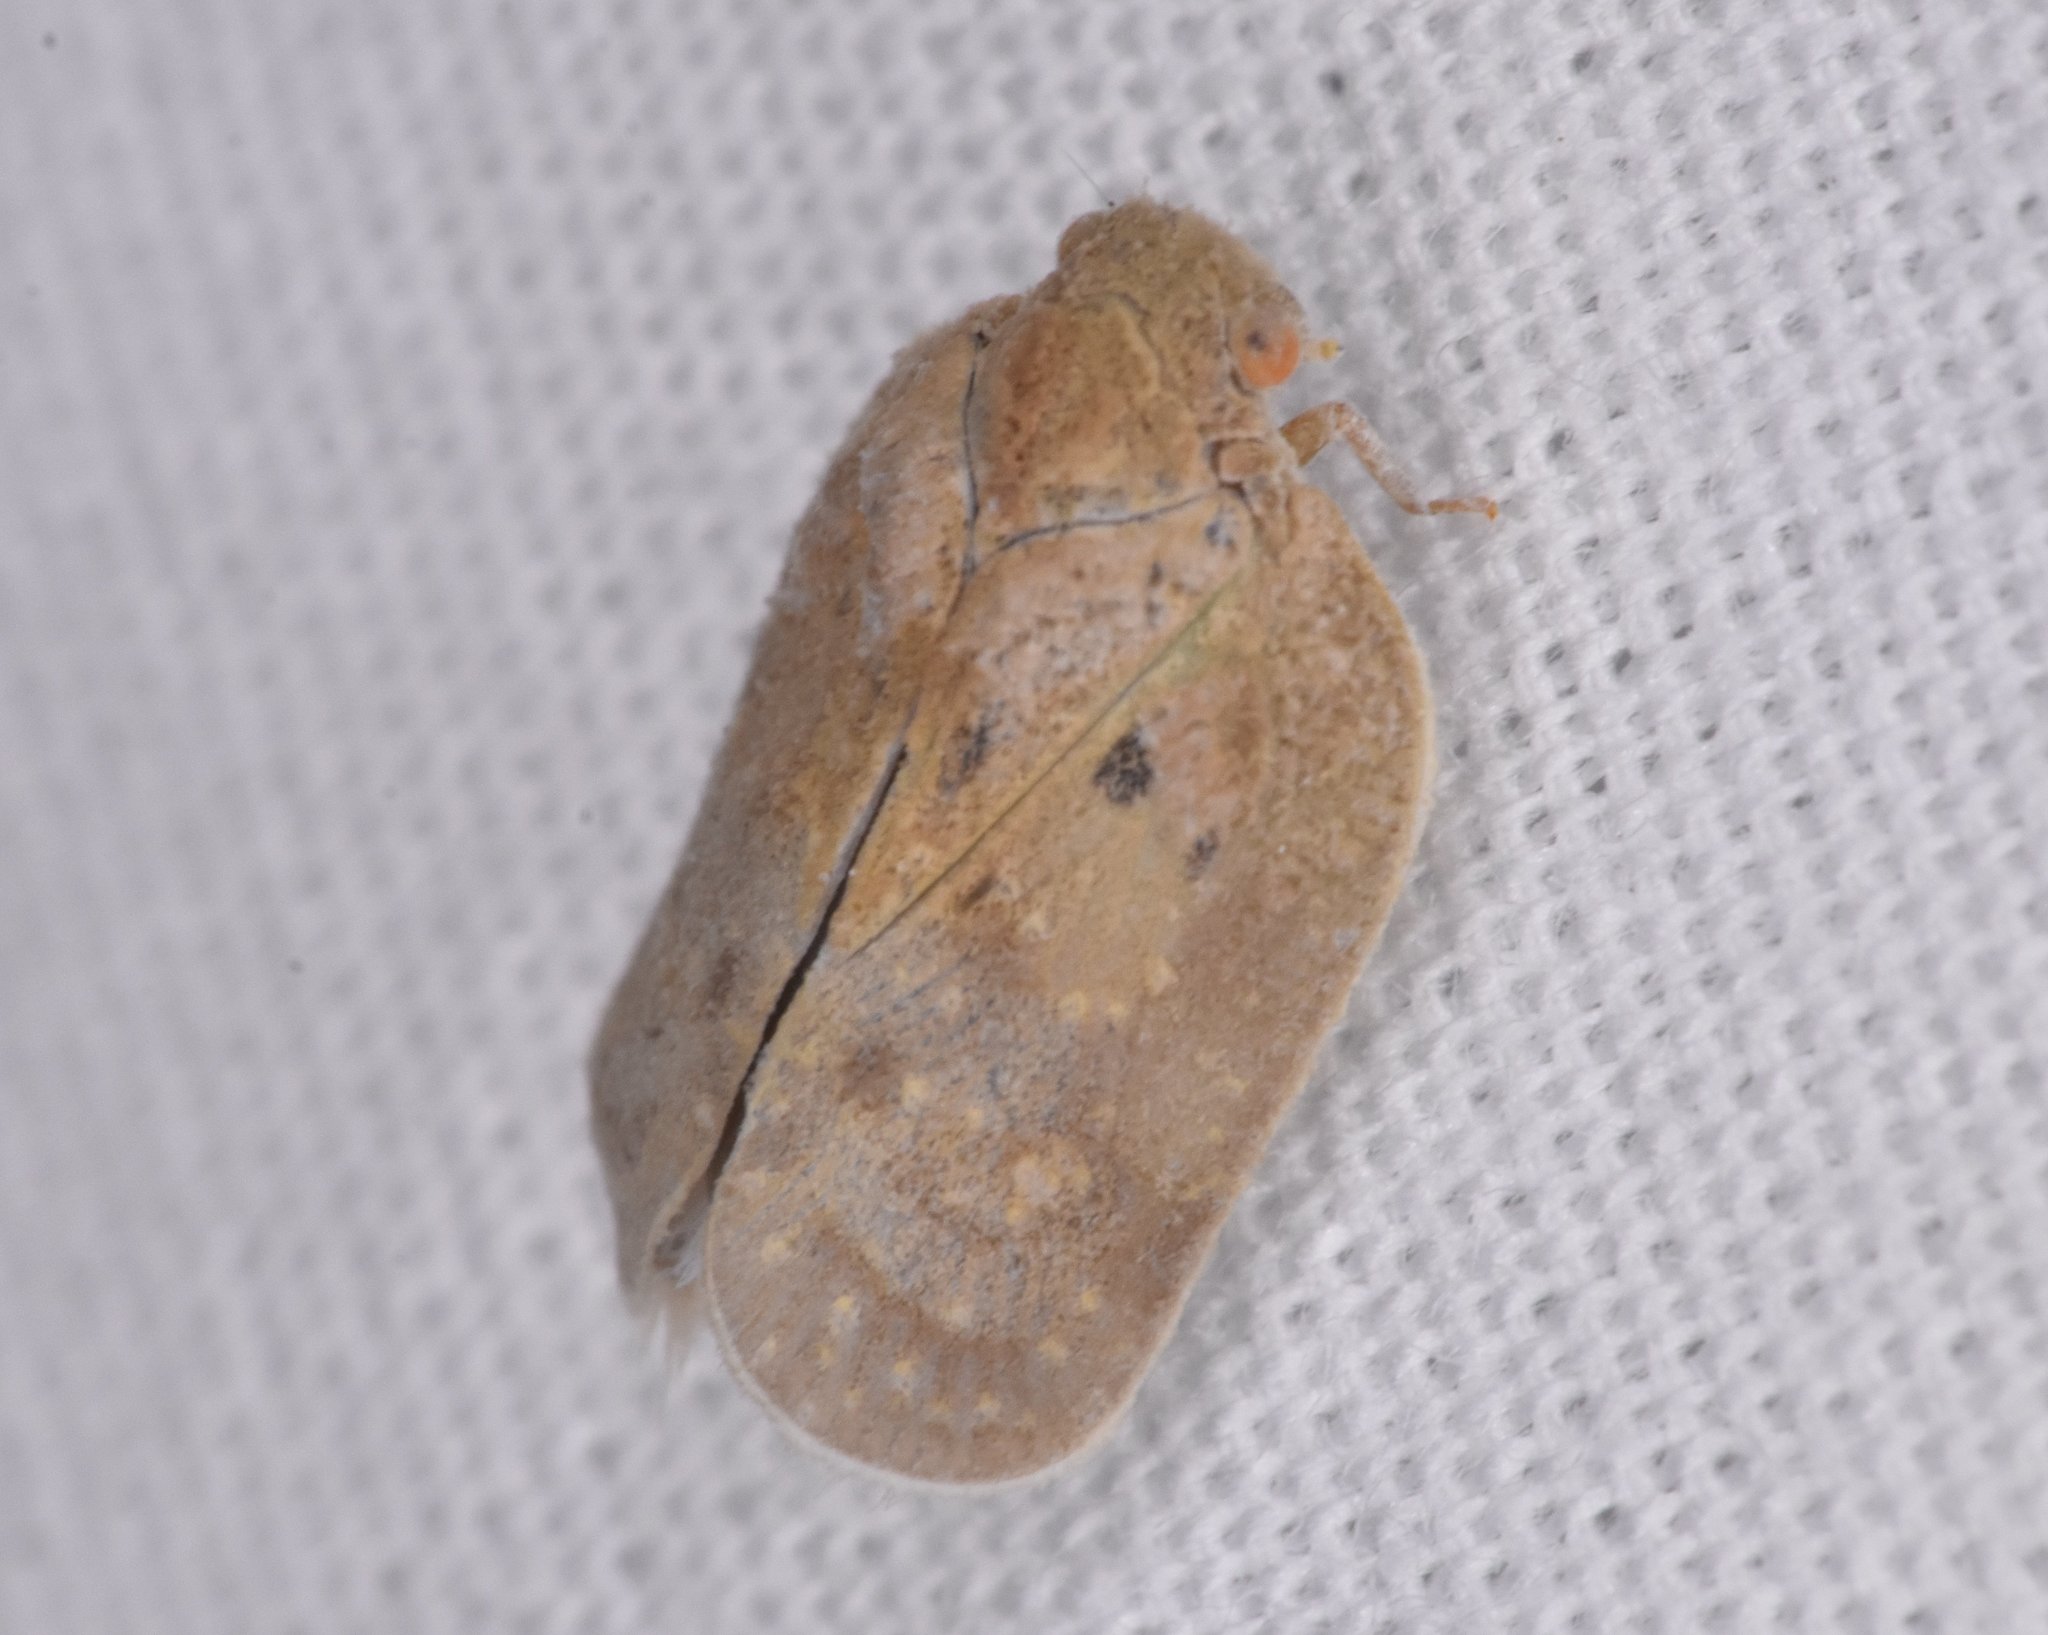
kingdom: Animalia
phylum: Arthropoda
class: Insecta
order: Hemiptera
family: Flatidae
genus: Melormenis
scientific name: Melormenis basalis
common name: Puerto rican planthopper
